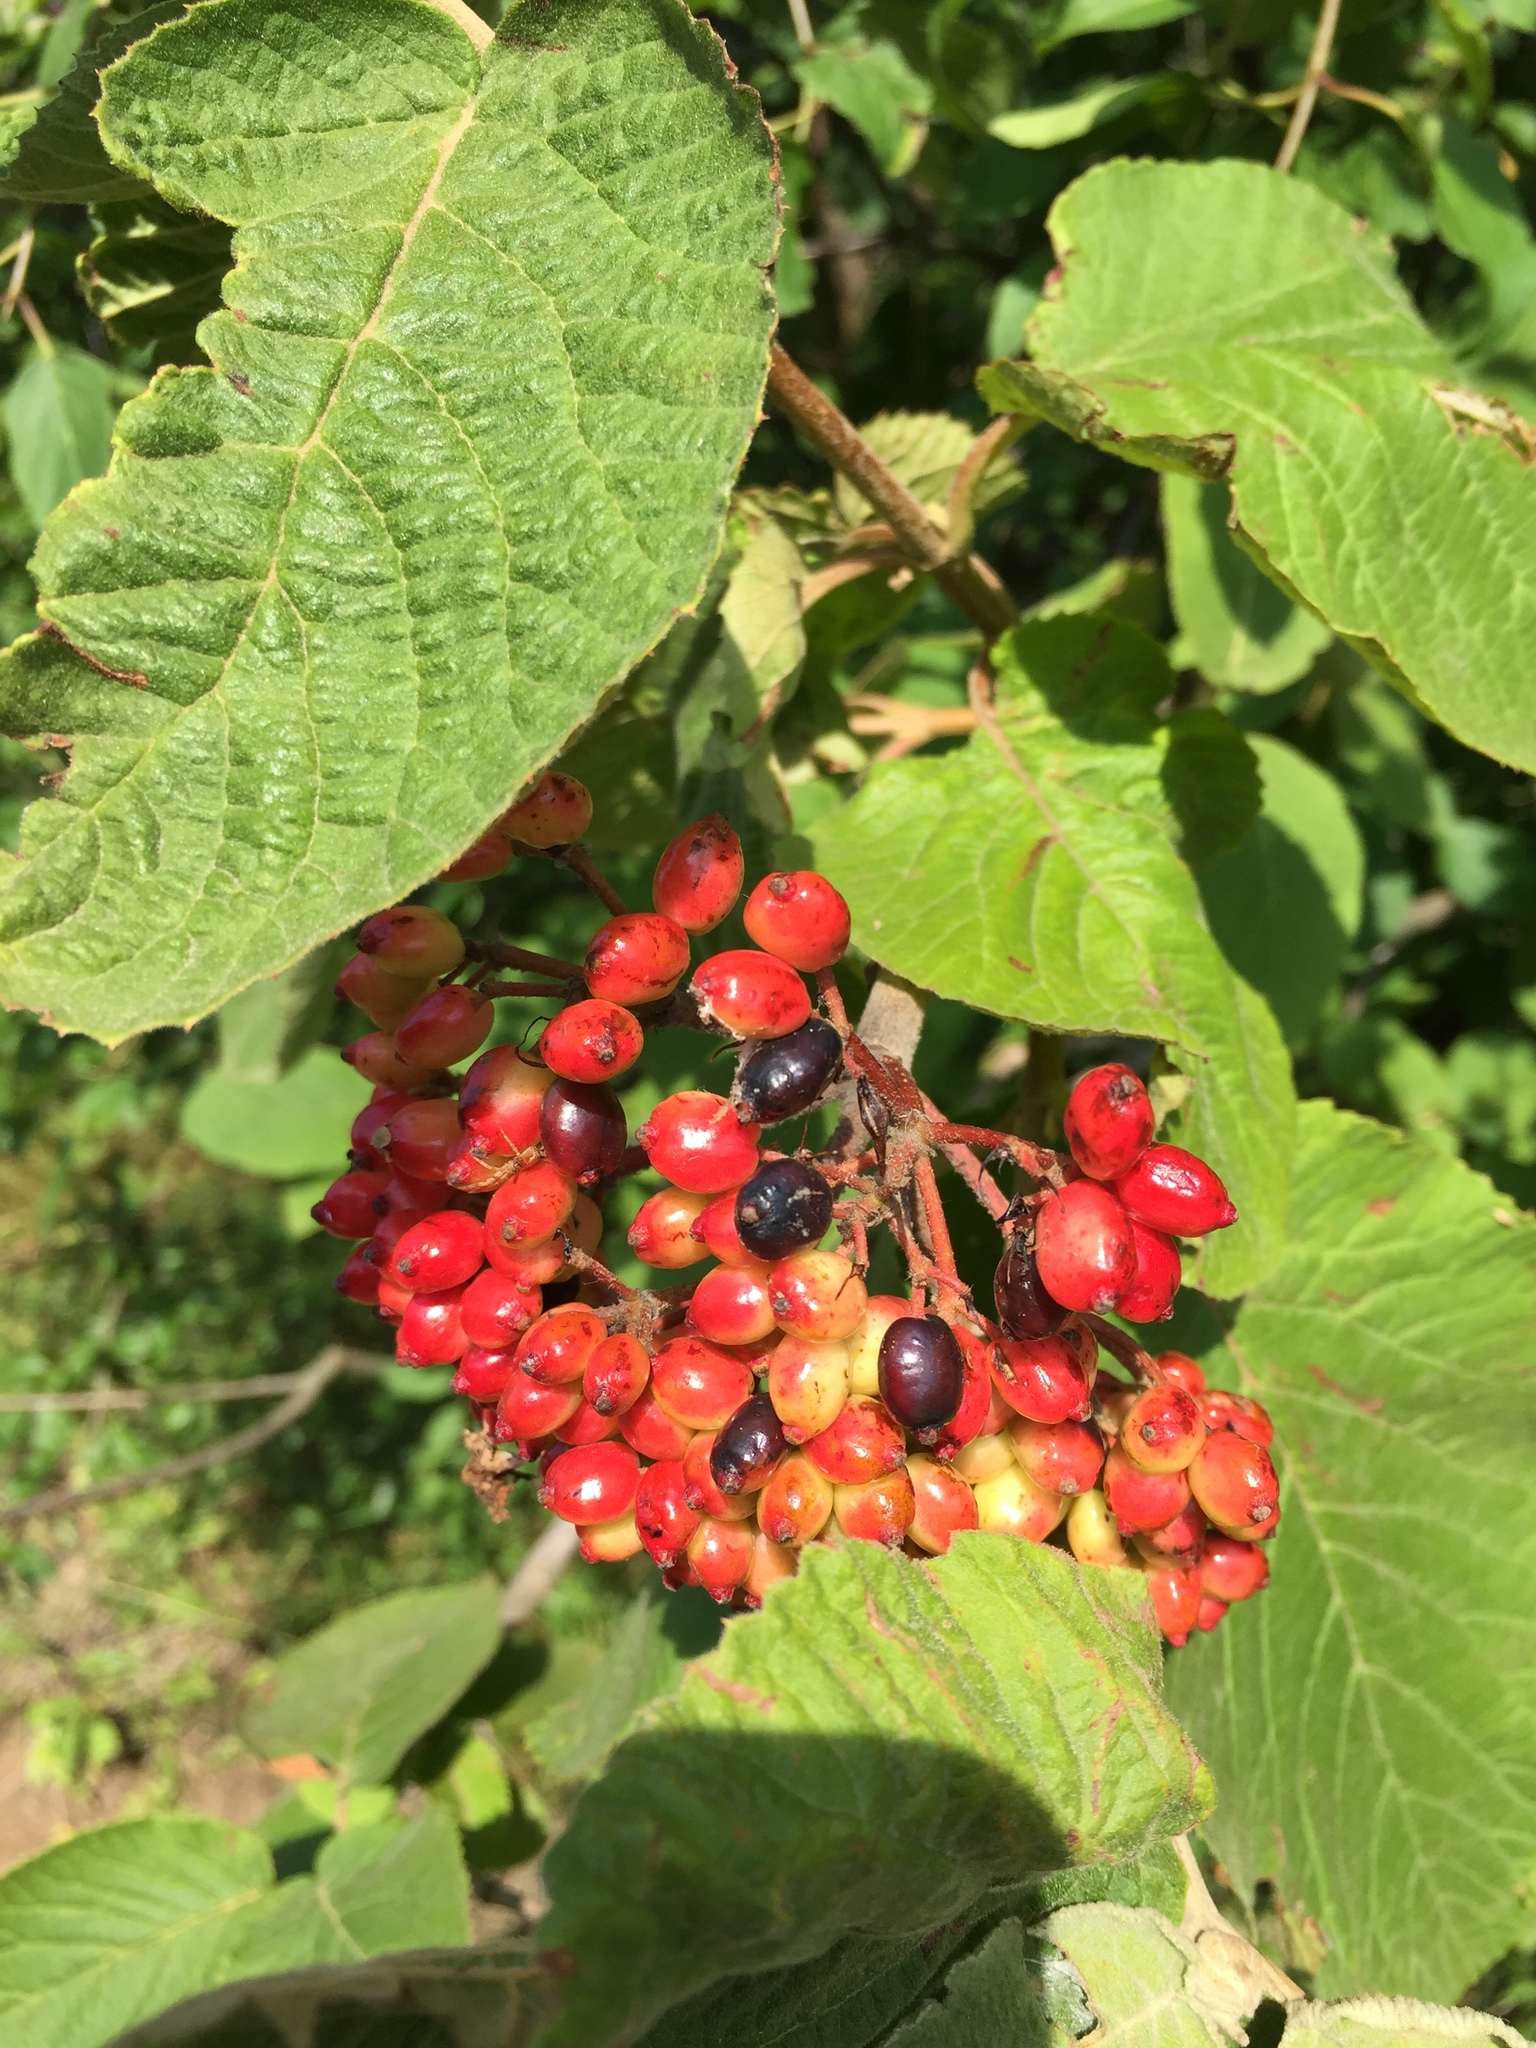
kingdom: Plantae
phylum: Tracheophyta
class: Magnoliopsida
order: Dipsacales
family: Viburnaceae
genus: Viburnum
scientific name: Viburnum lantana
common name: Wayfaring tree
